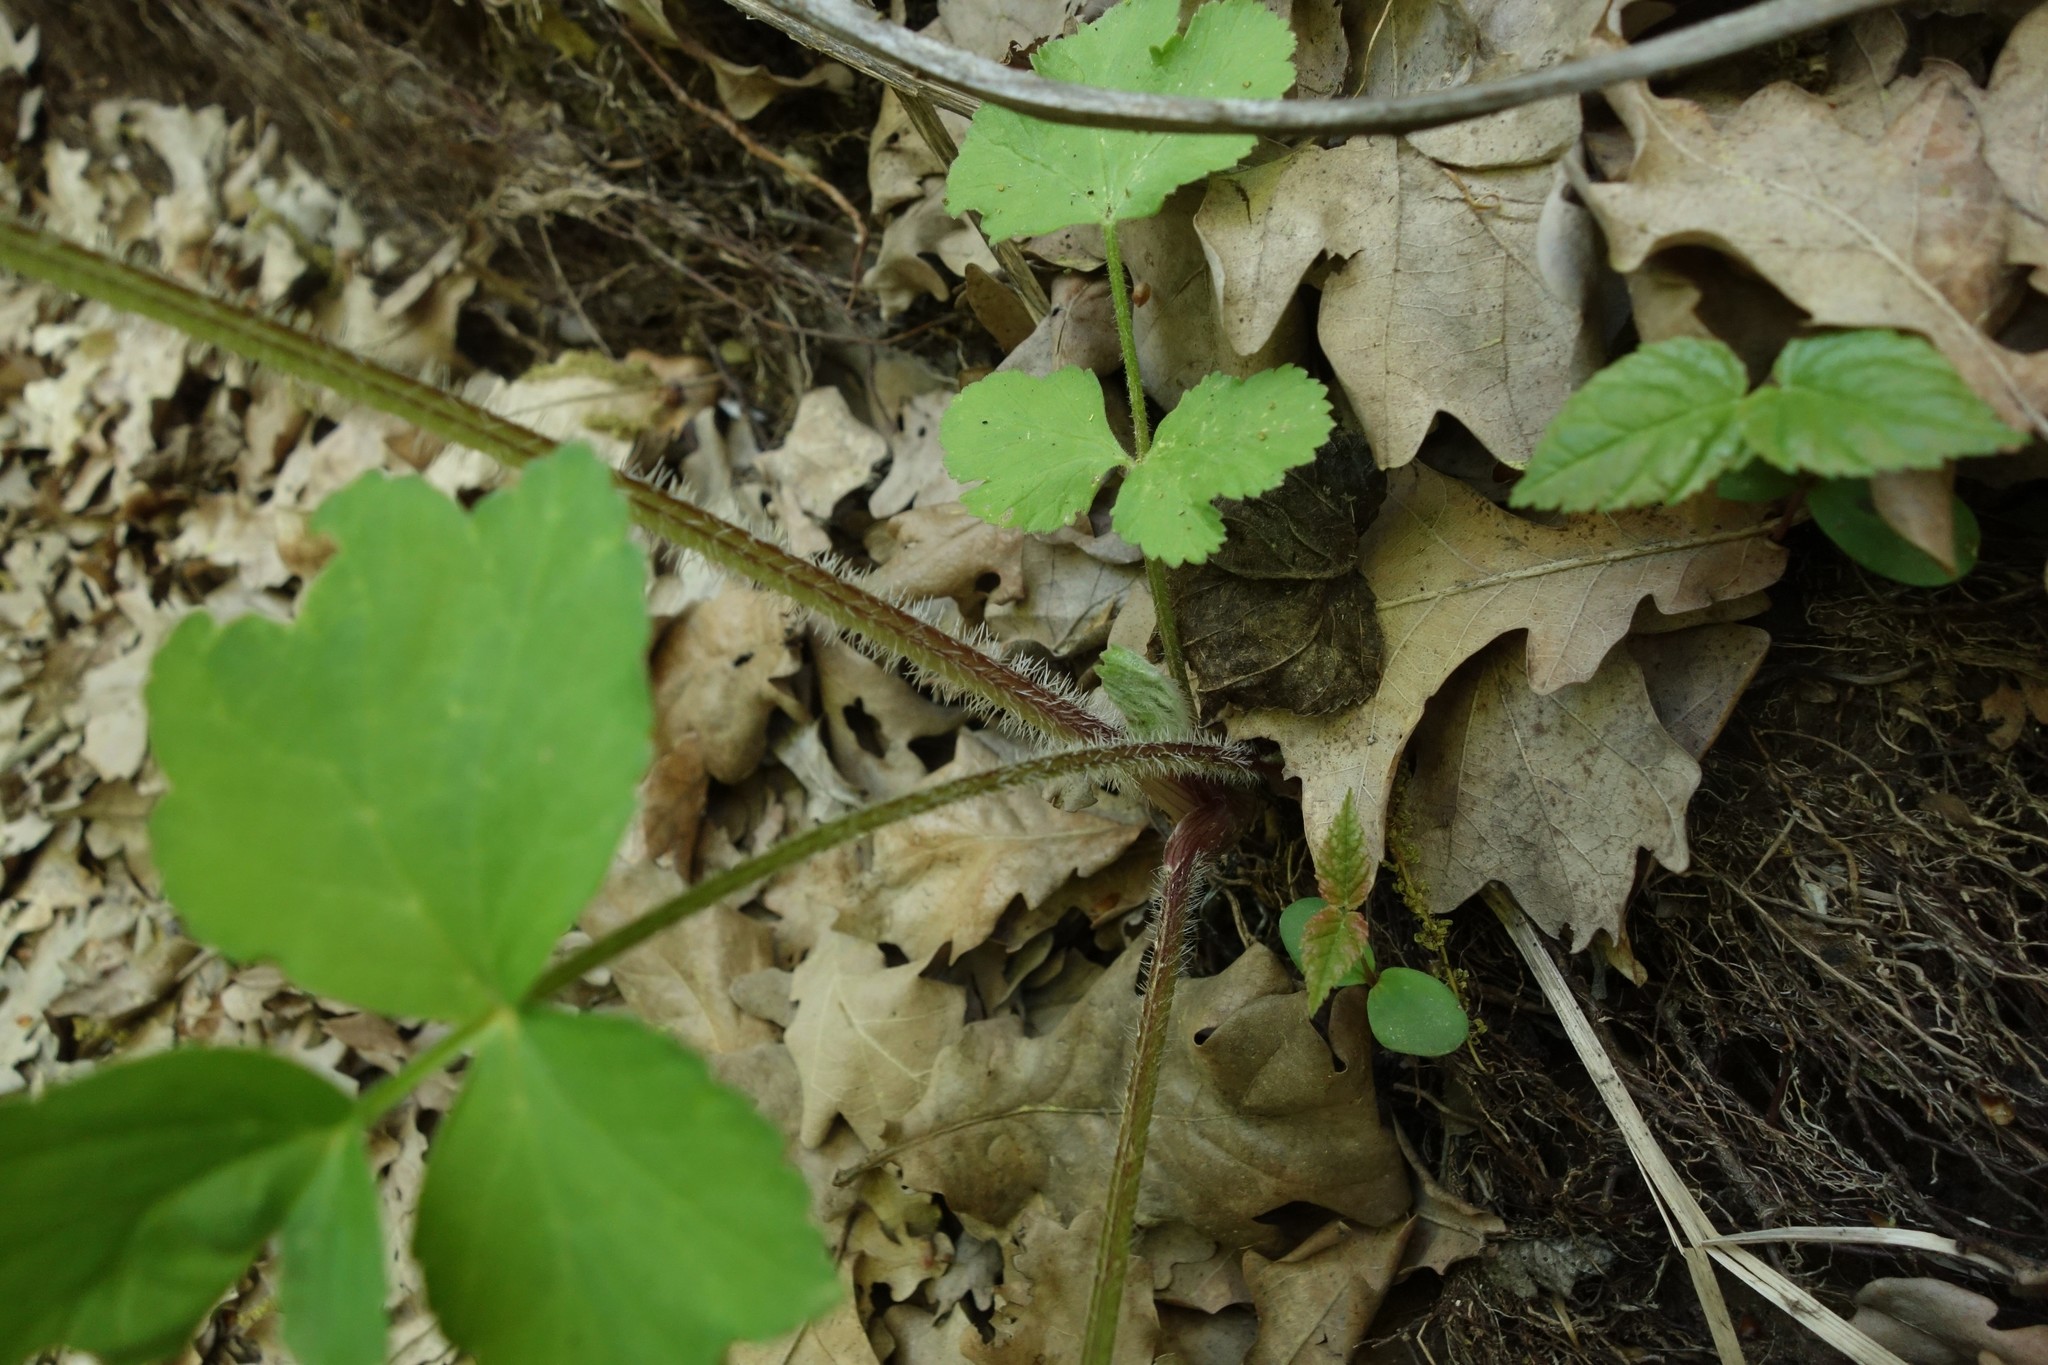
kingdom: Plantae
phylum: Tracheophyta
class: Magnoliopsida
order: Apiales
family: Apiaceae
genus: Heracleum
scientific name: Heracleum sphondylium
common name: Hogweed
